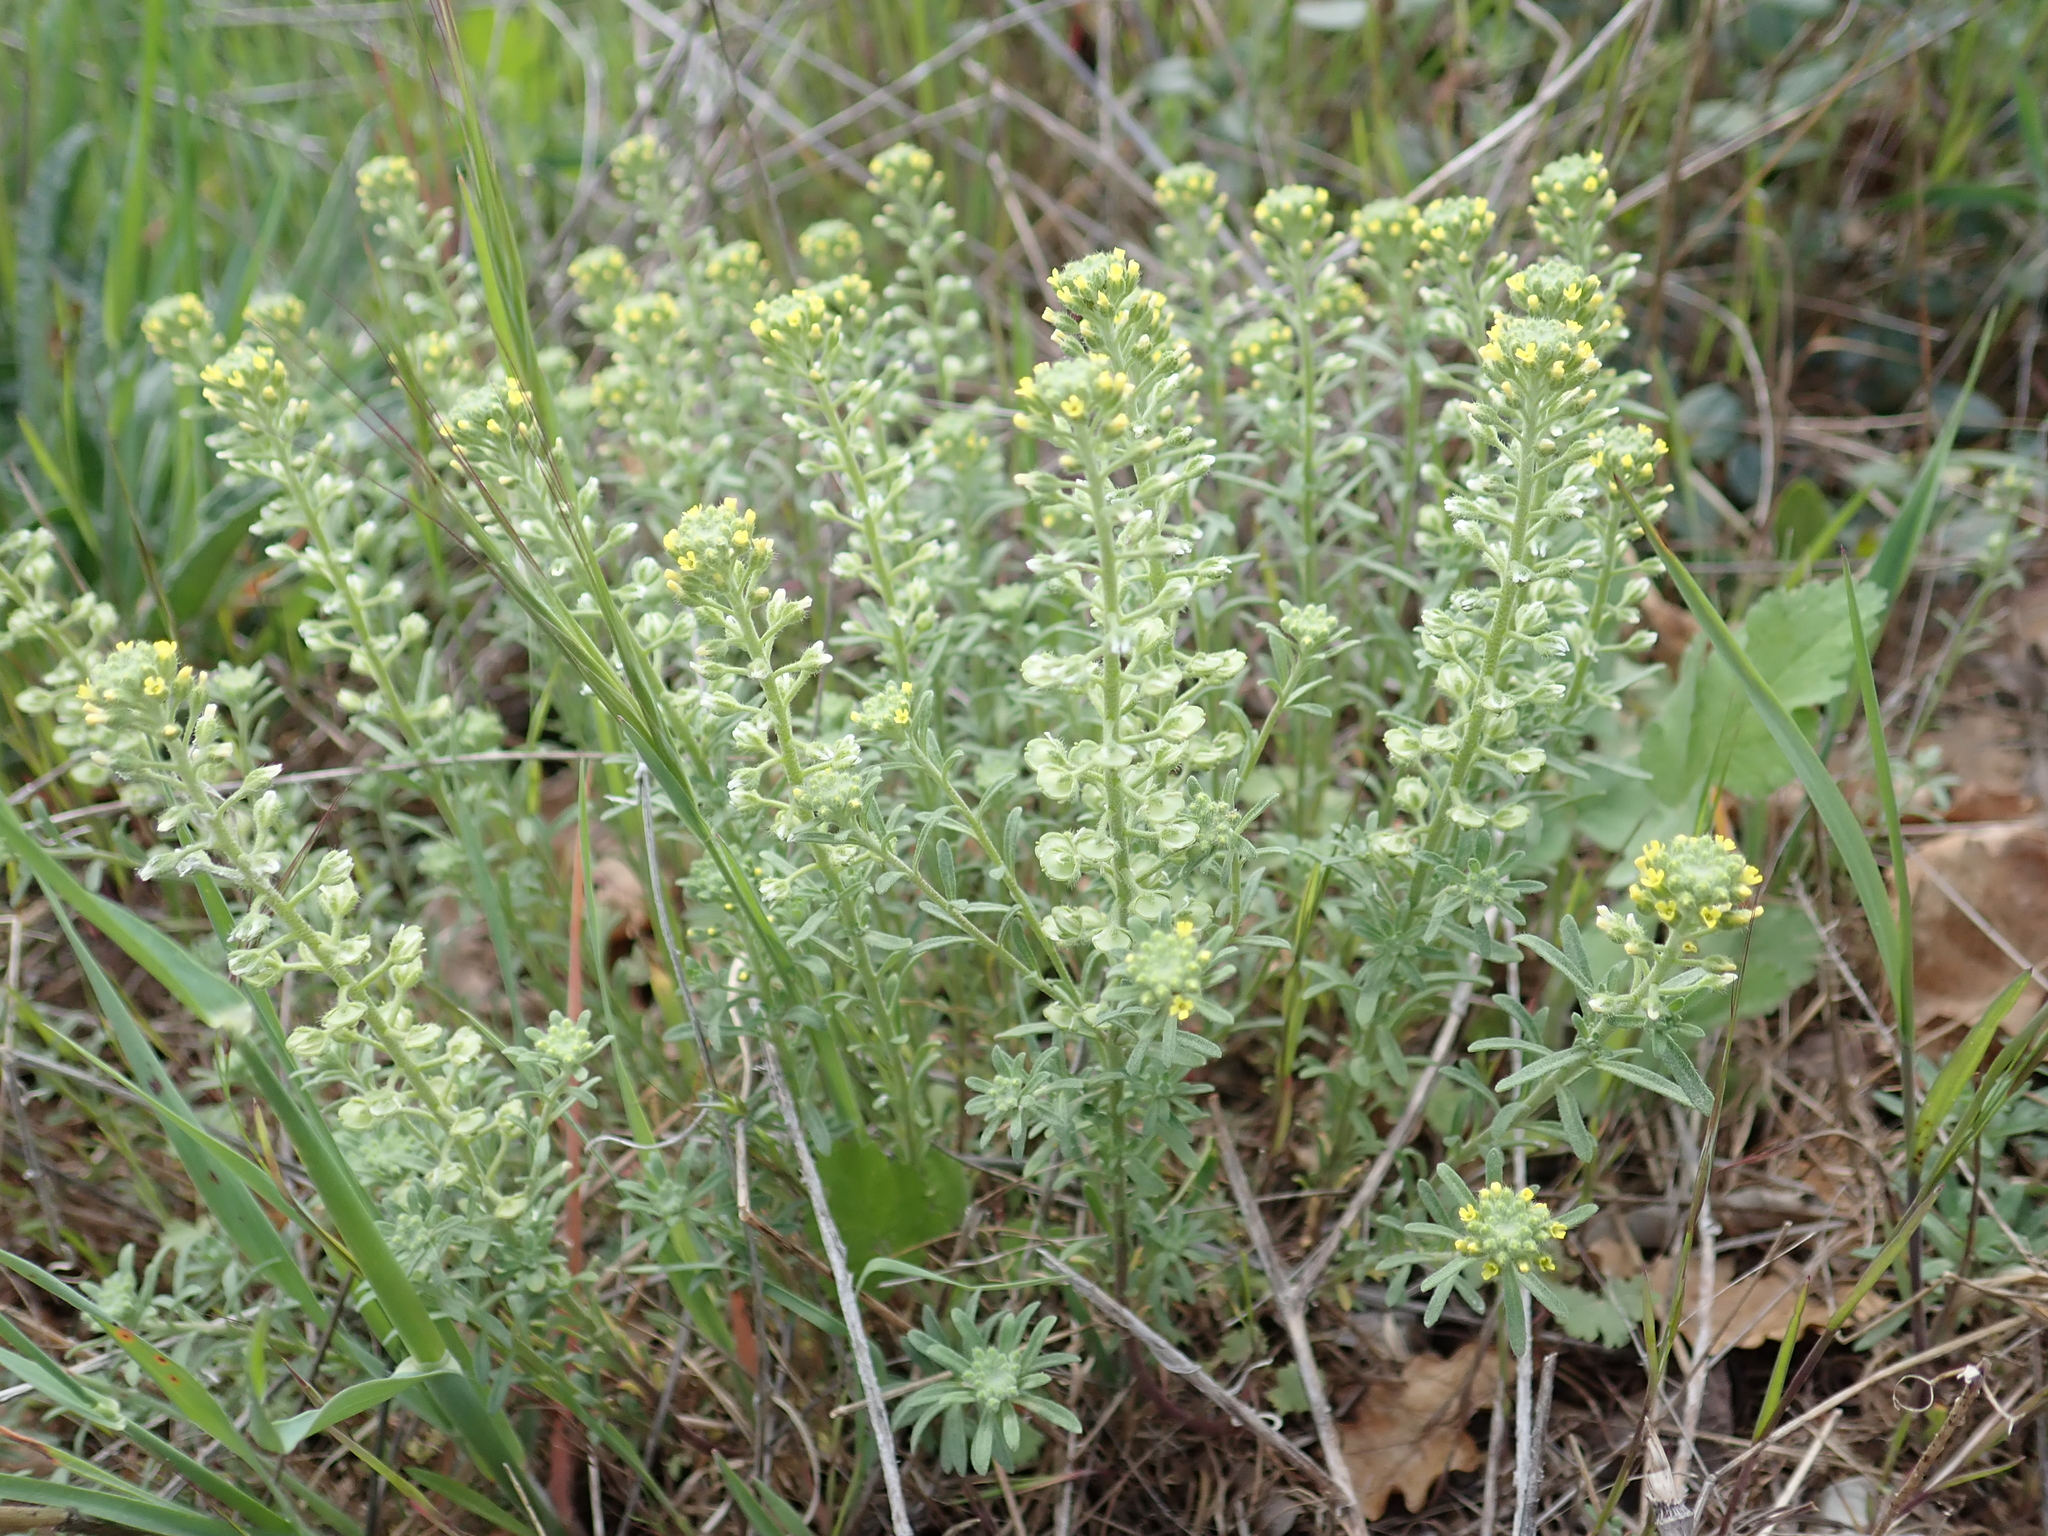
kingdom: Plantae
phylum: Tracheophyta
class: Magnoliopsida
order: Brassicales
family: Brassicaceae
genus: Alyssum
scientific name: Alyssum alyssoides
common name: Small alison
